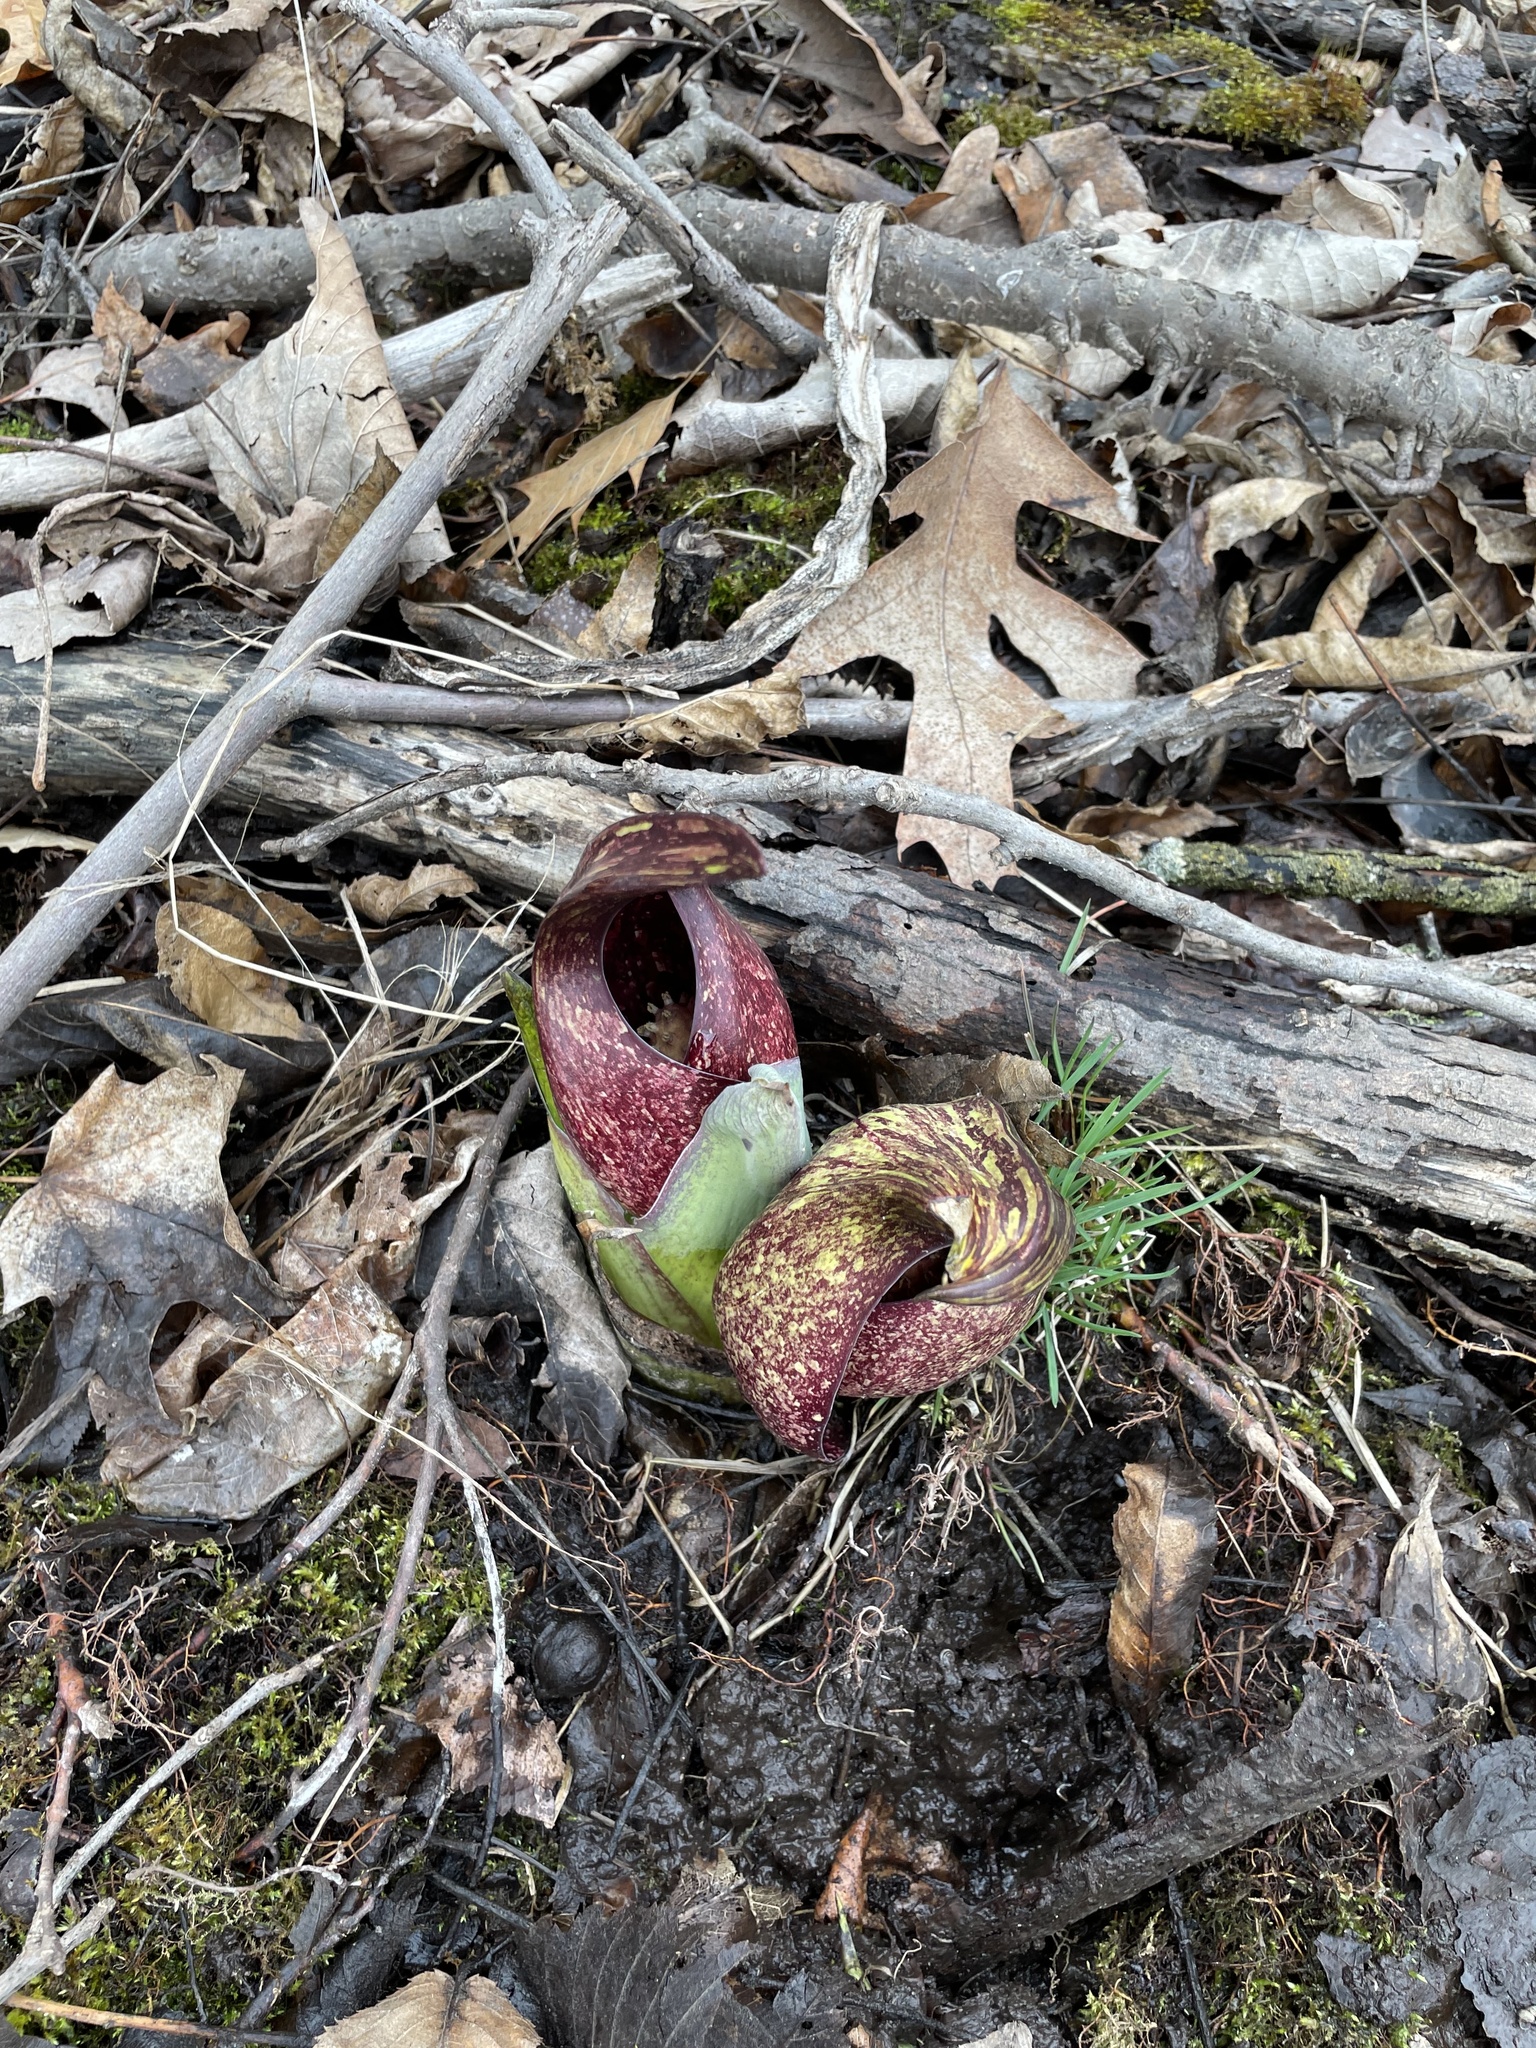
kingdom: Plantae
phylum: Tracheophyta
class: Liliopsida
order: Alismatales
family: Araceae
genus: Symplocarpus
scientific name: Symplocarpus foetidus
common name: Eastern skunk cabbage
